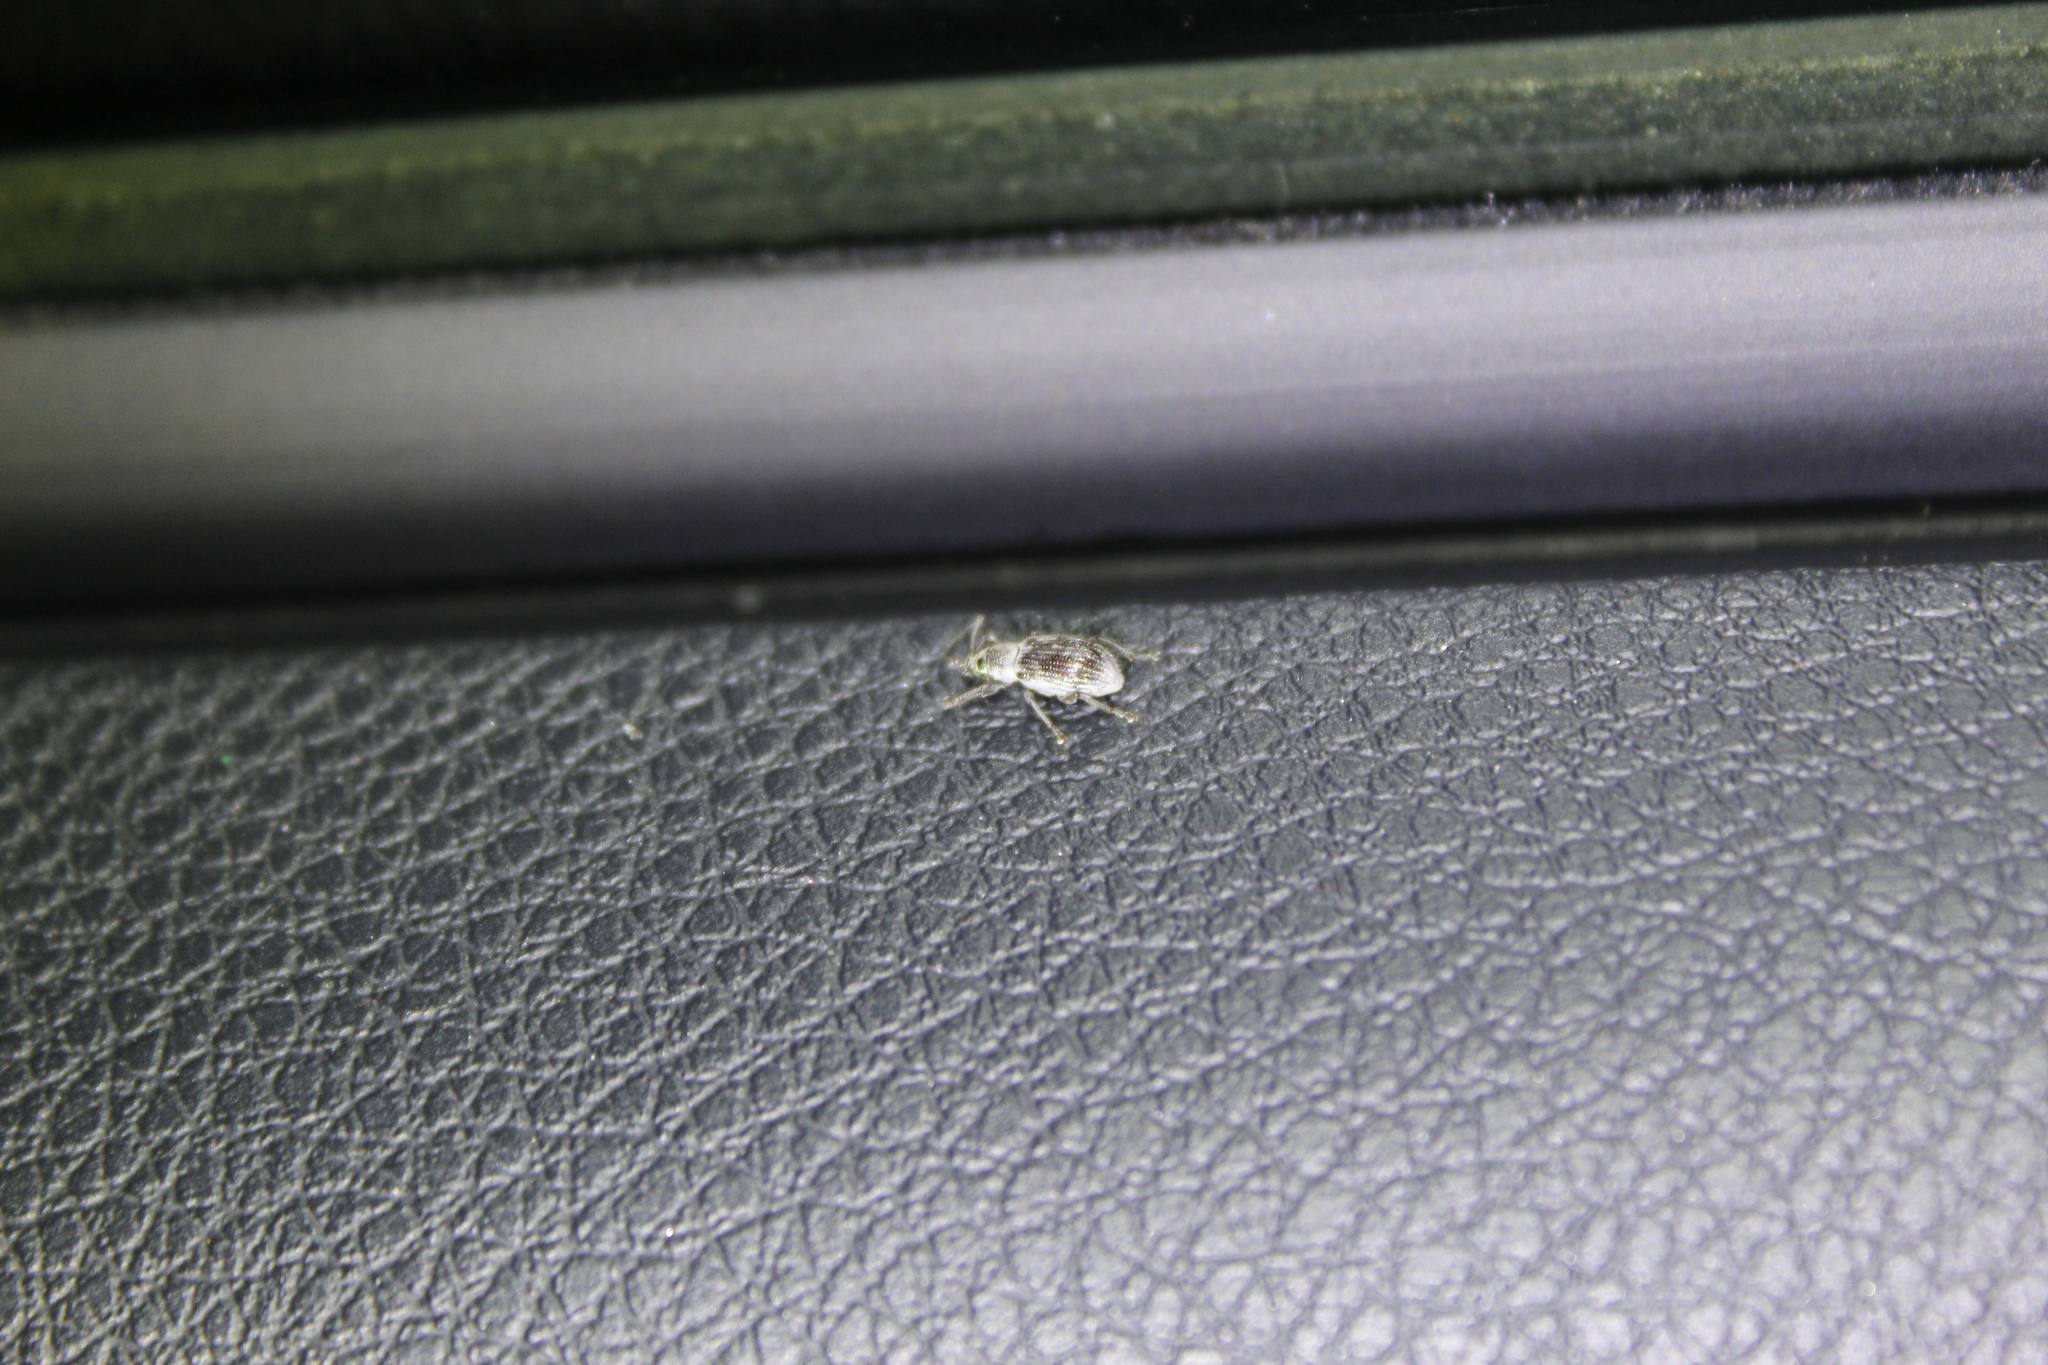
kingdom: Animalia
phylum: Arthropoda
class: Insecta
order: Coleoptera
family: Curculionidae
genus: Cyrtepistomus
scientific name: Cyrtepistomus castaneus
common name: Weevil
